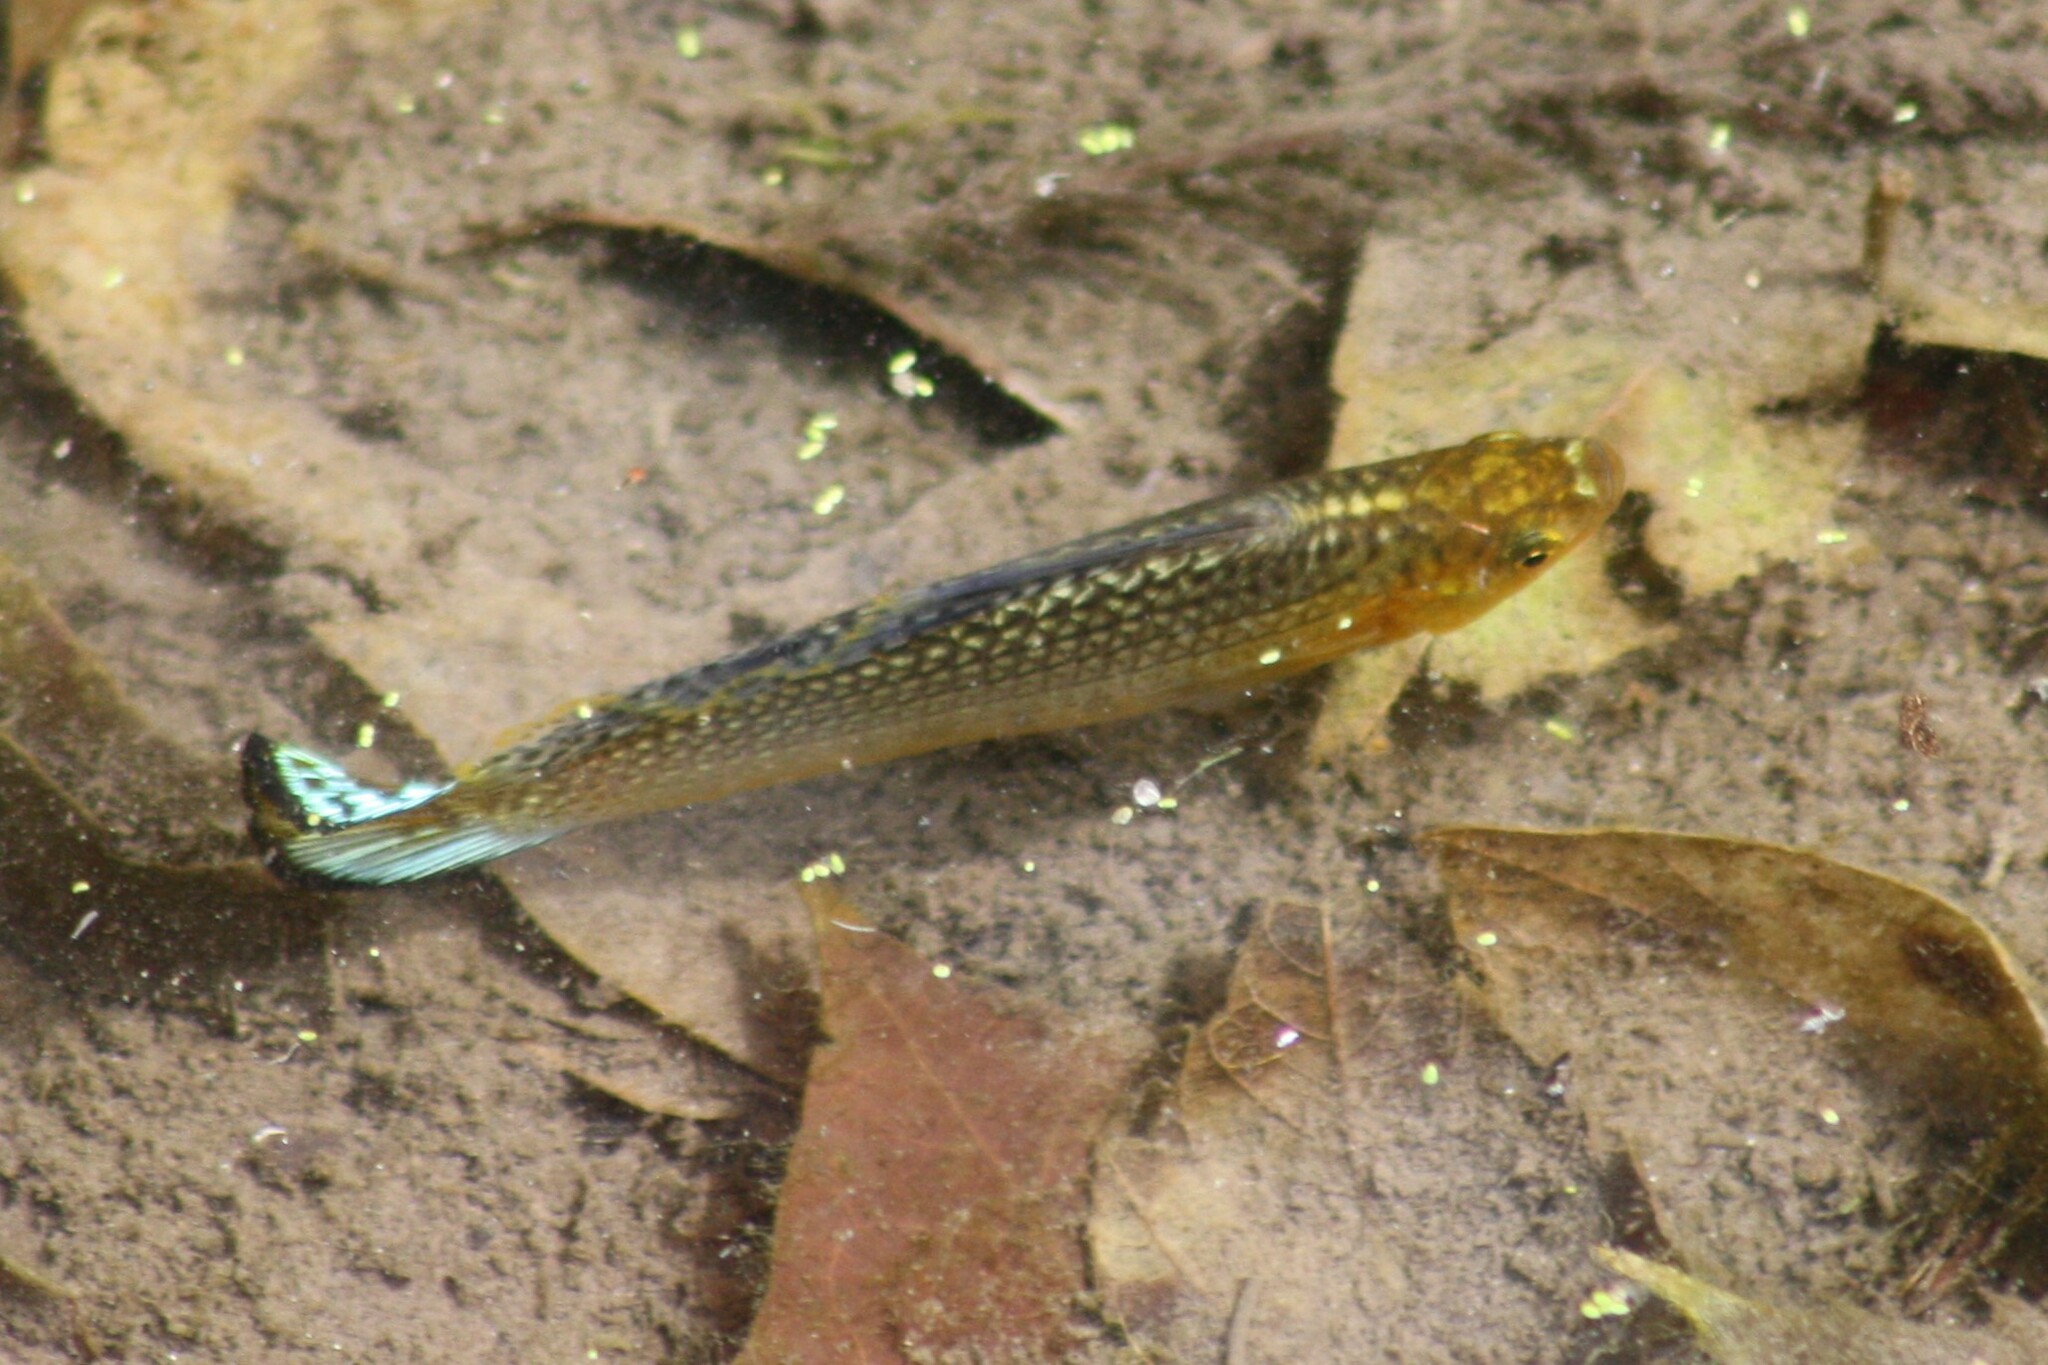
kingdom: Animalia
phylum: Chordata
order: Cyprinodontiformes
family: Poeciliidae
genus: Poecilia
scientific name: Poecilia latipinna
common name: Sailfin molly
